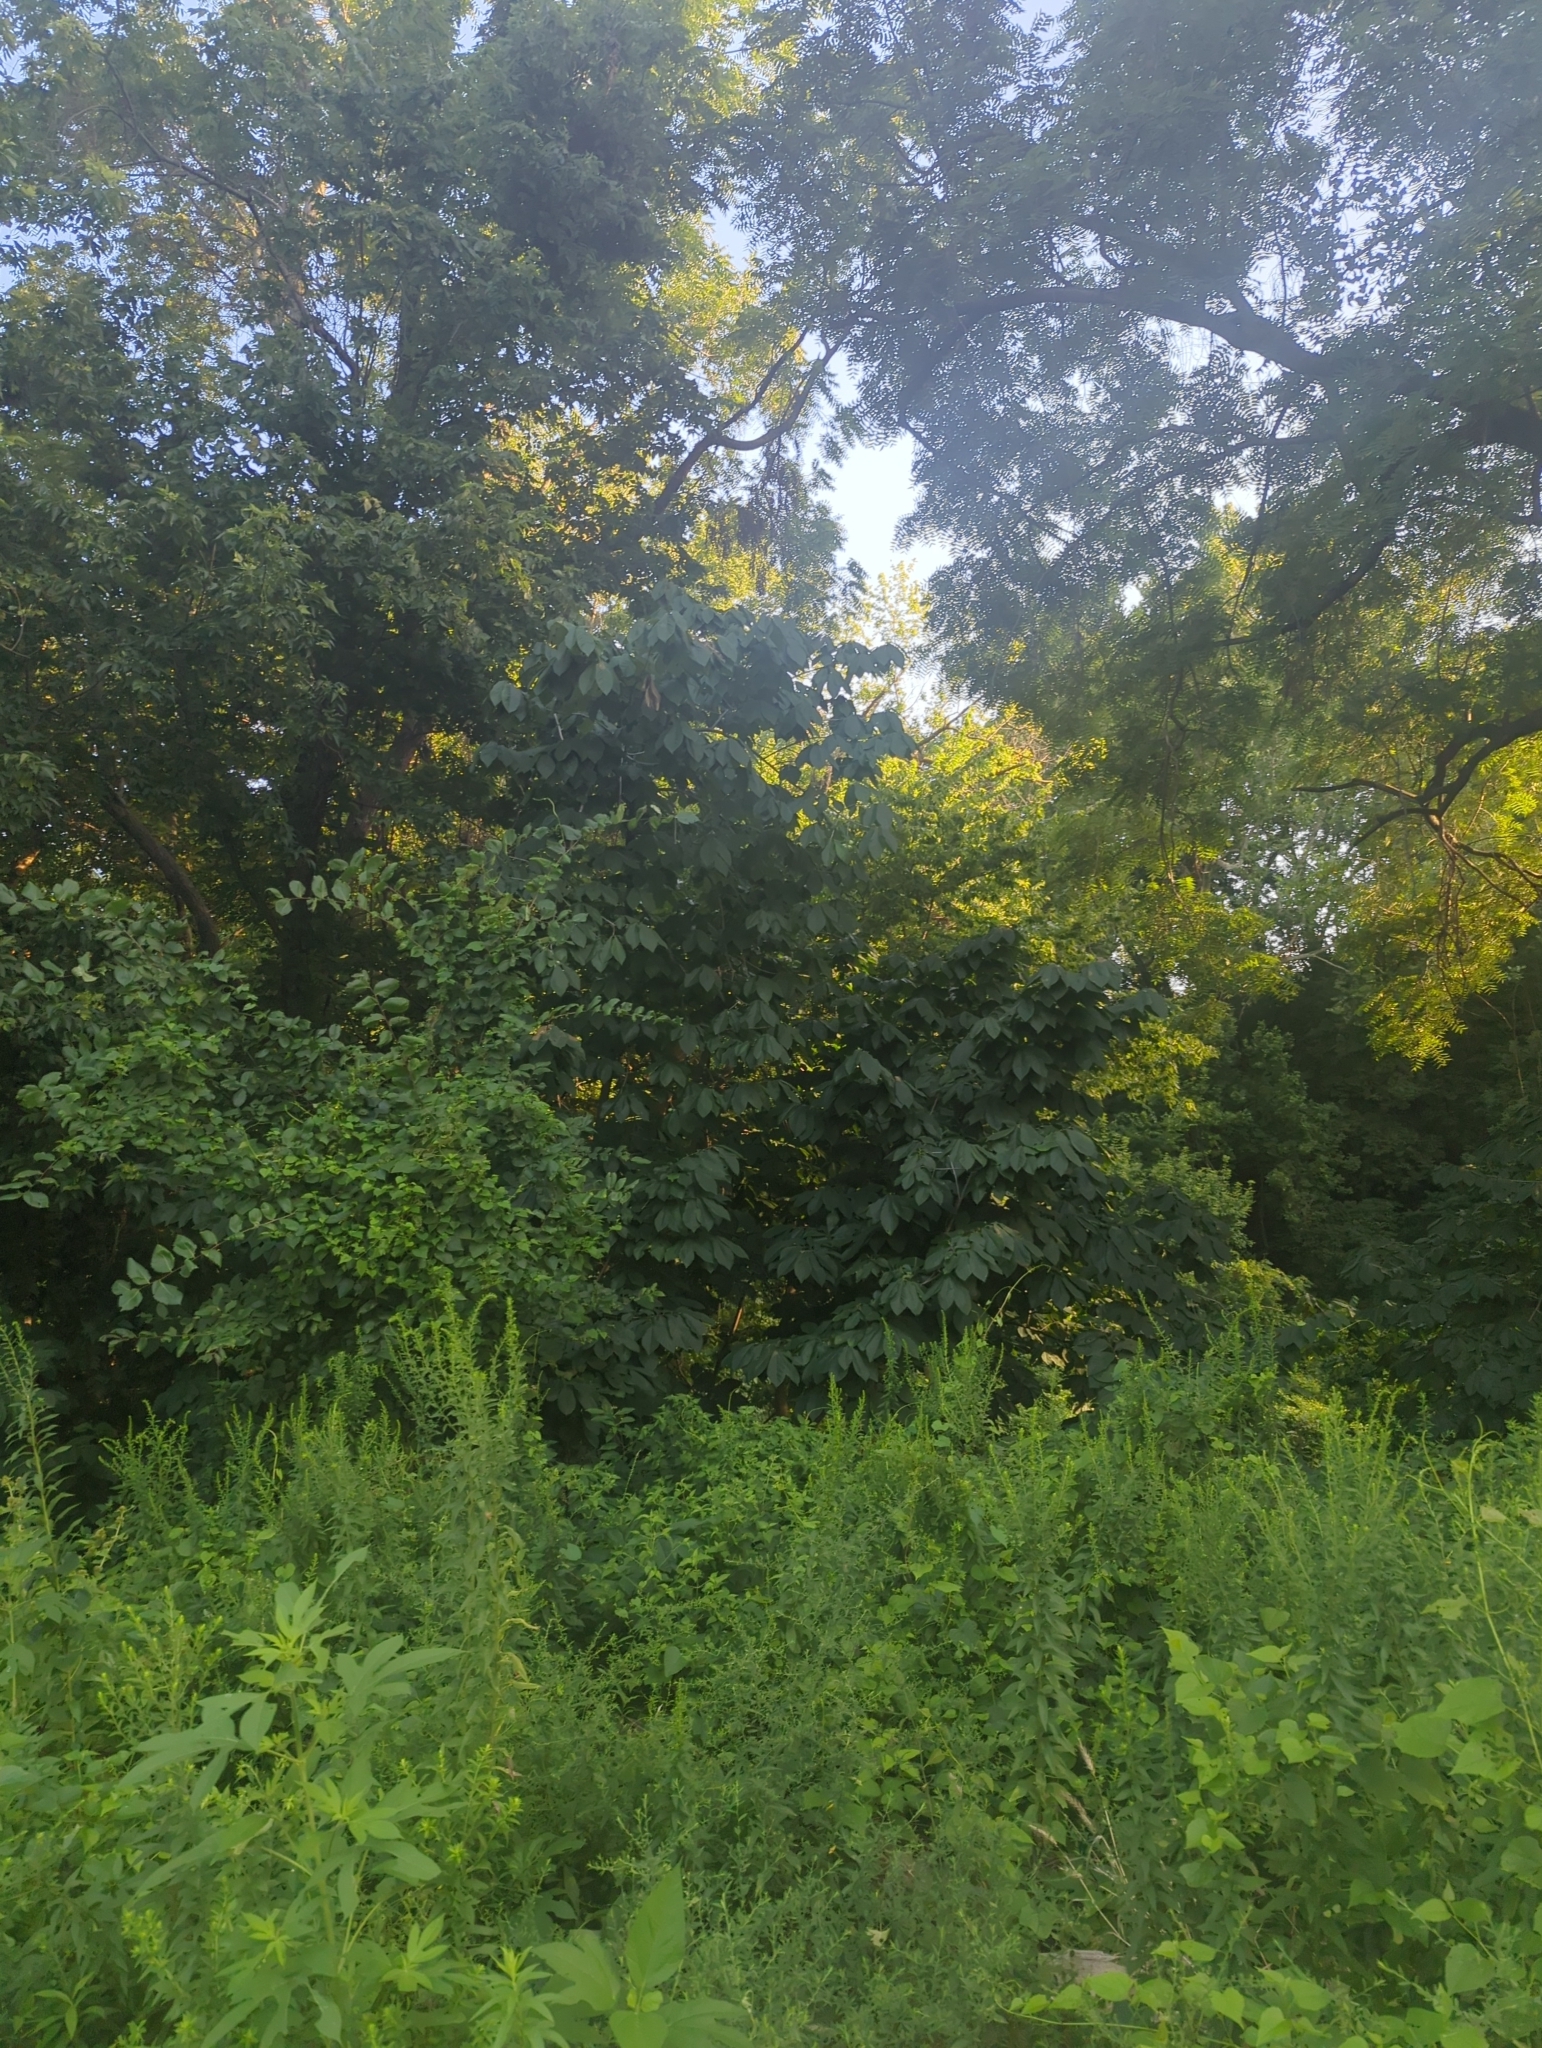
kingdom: Plantae
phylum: Tracheophyta
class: Magnoliopsida
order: Magnoliales
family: Annonaceae
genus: Asimina
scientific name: Asimina triloba
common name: Dog-banana
